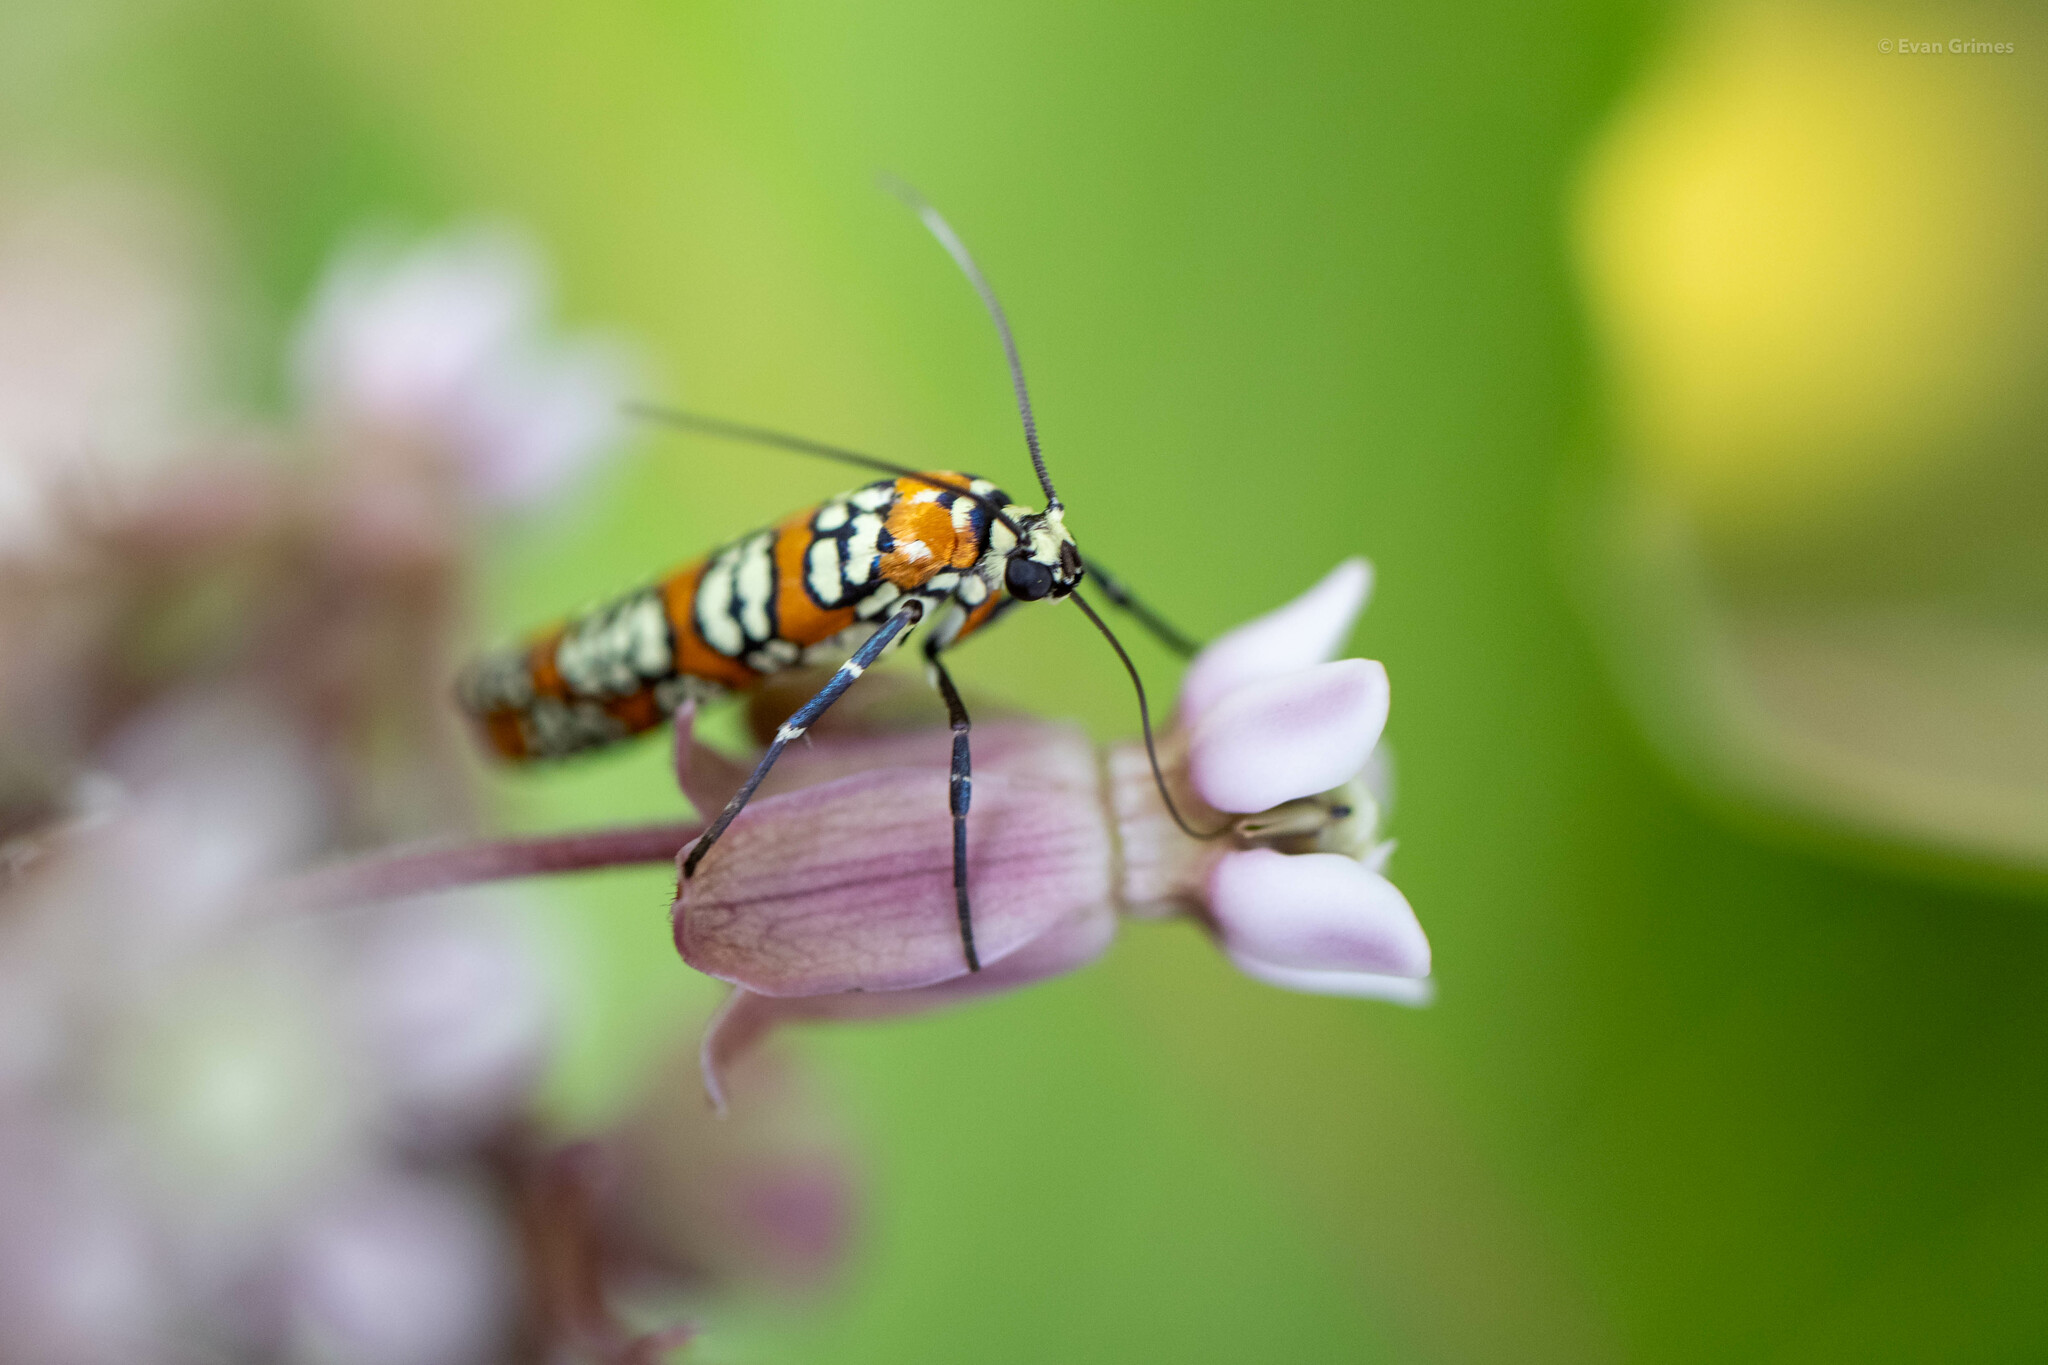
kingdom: Animalia
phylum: Arthropoda
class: Insecta
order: Lepidoptera
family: Attevidae
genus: Atteva
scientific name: Atteva punctella
